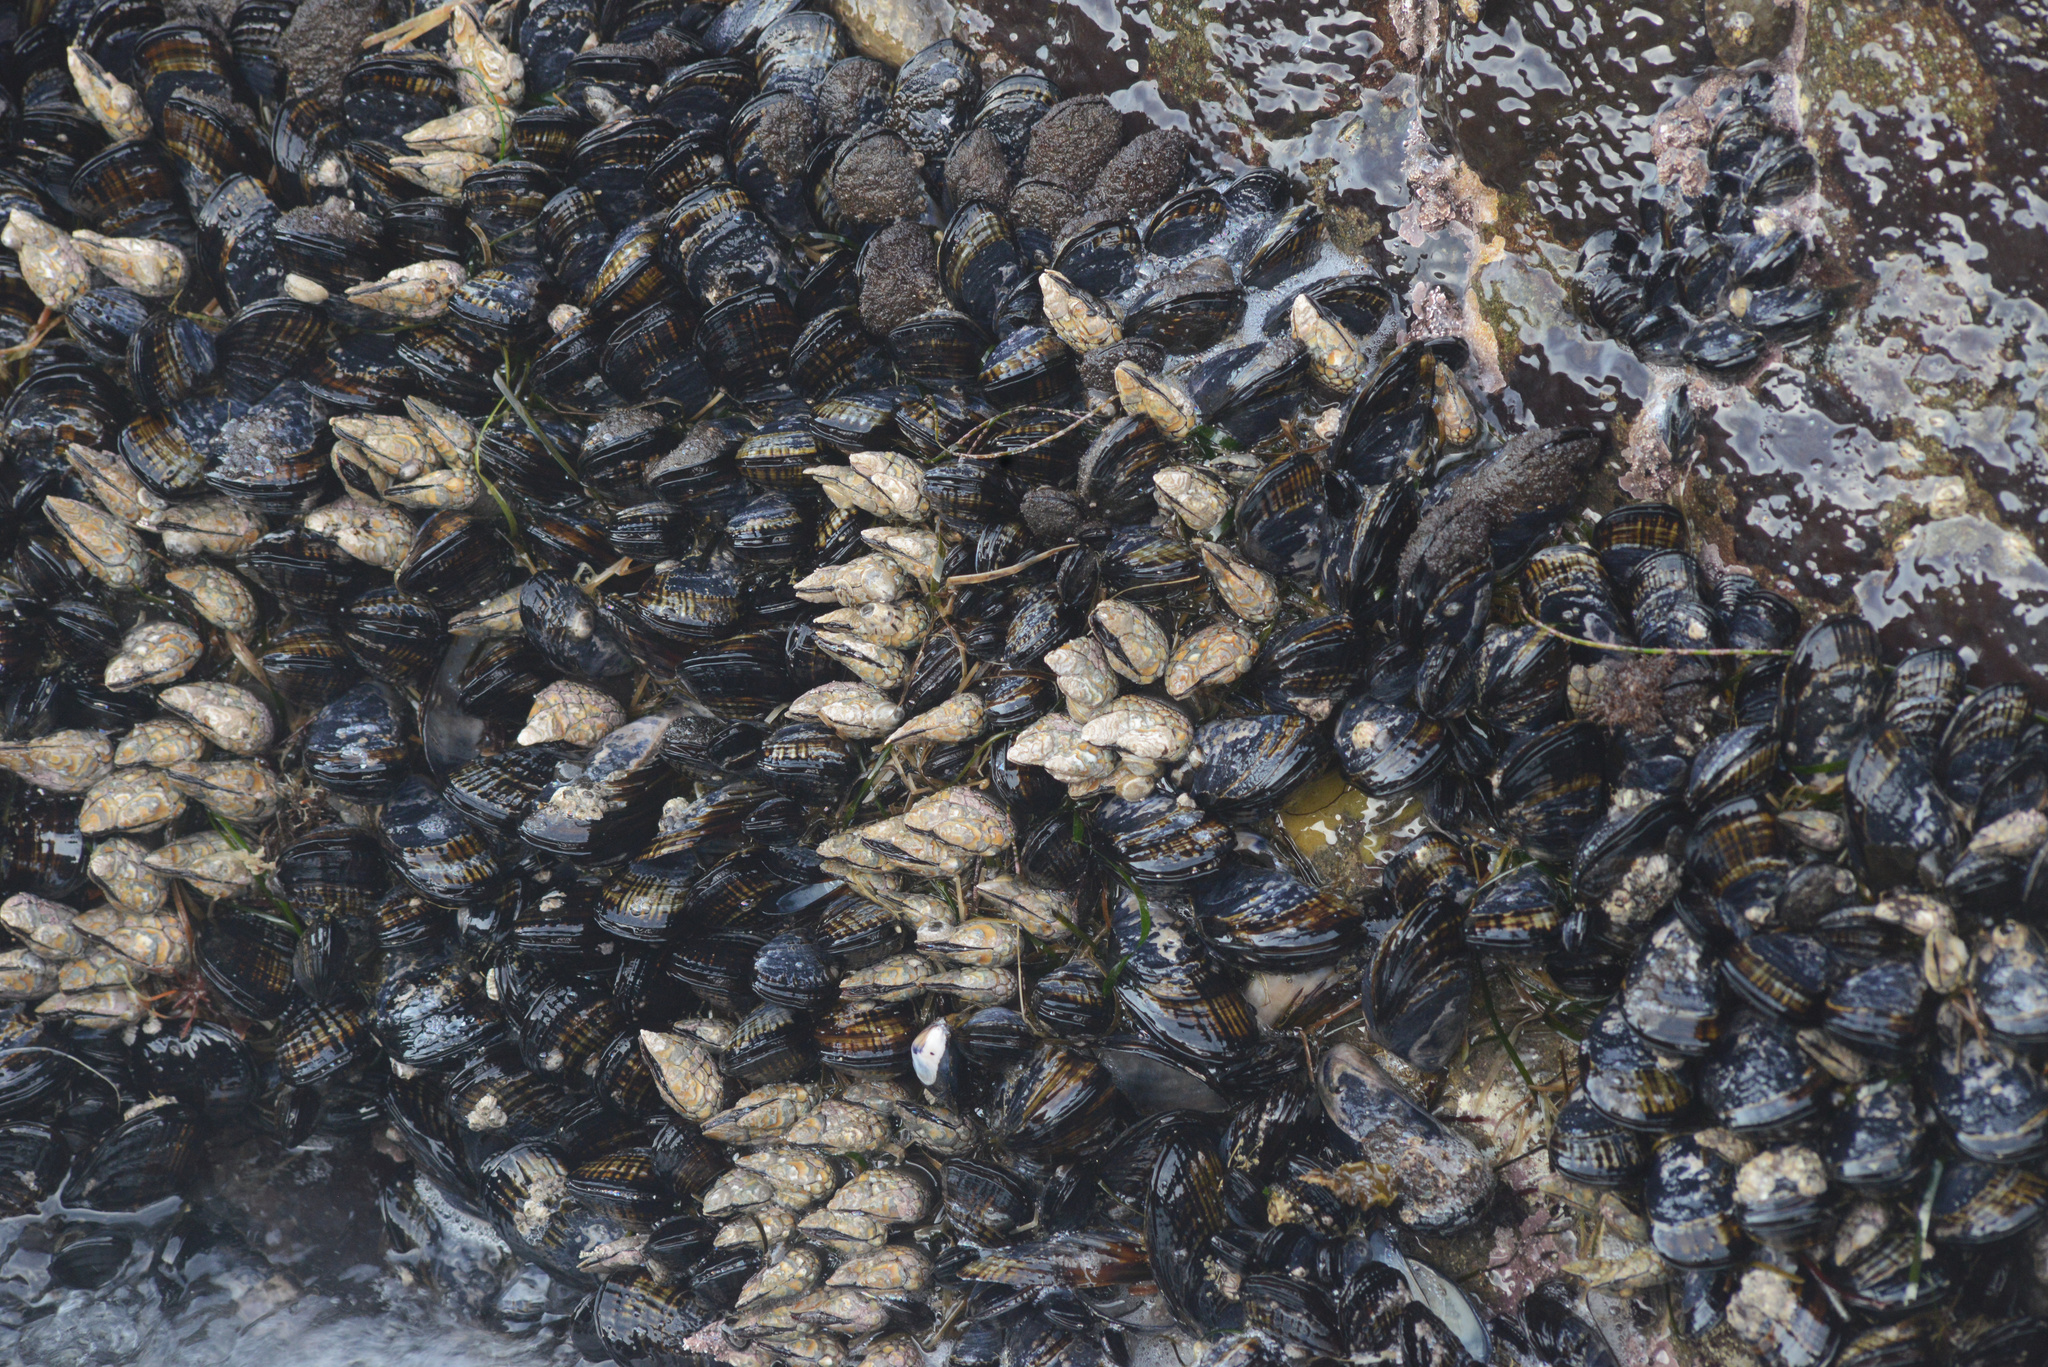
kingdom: Animalia
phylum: Arthropoda
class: Maxillopoda
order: Pedunculata
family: Pollicipedidae
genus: Pollicipes
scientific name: Pollicipes polymerus
